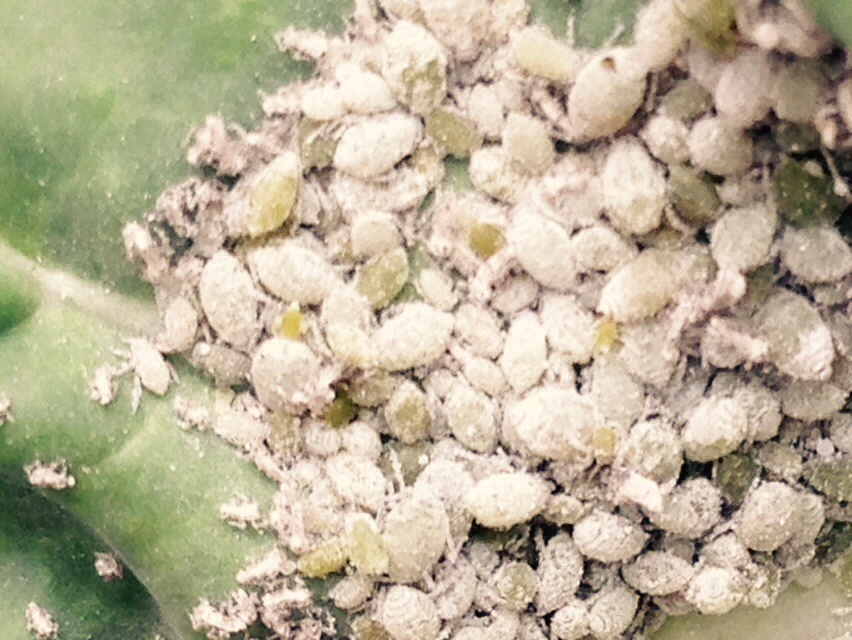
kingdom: Animalia
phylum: Arthropoda
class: Insecta
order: Hemiptera
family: Aphididae
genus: Brevicoryne
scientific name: Brevicoryne brassicae
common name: Cabbage aphid
